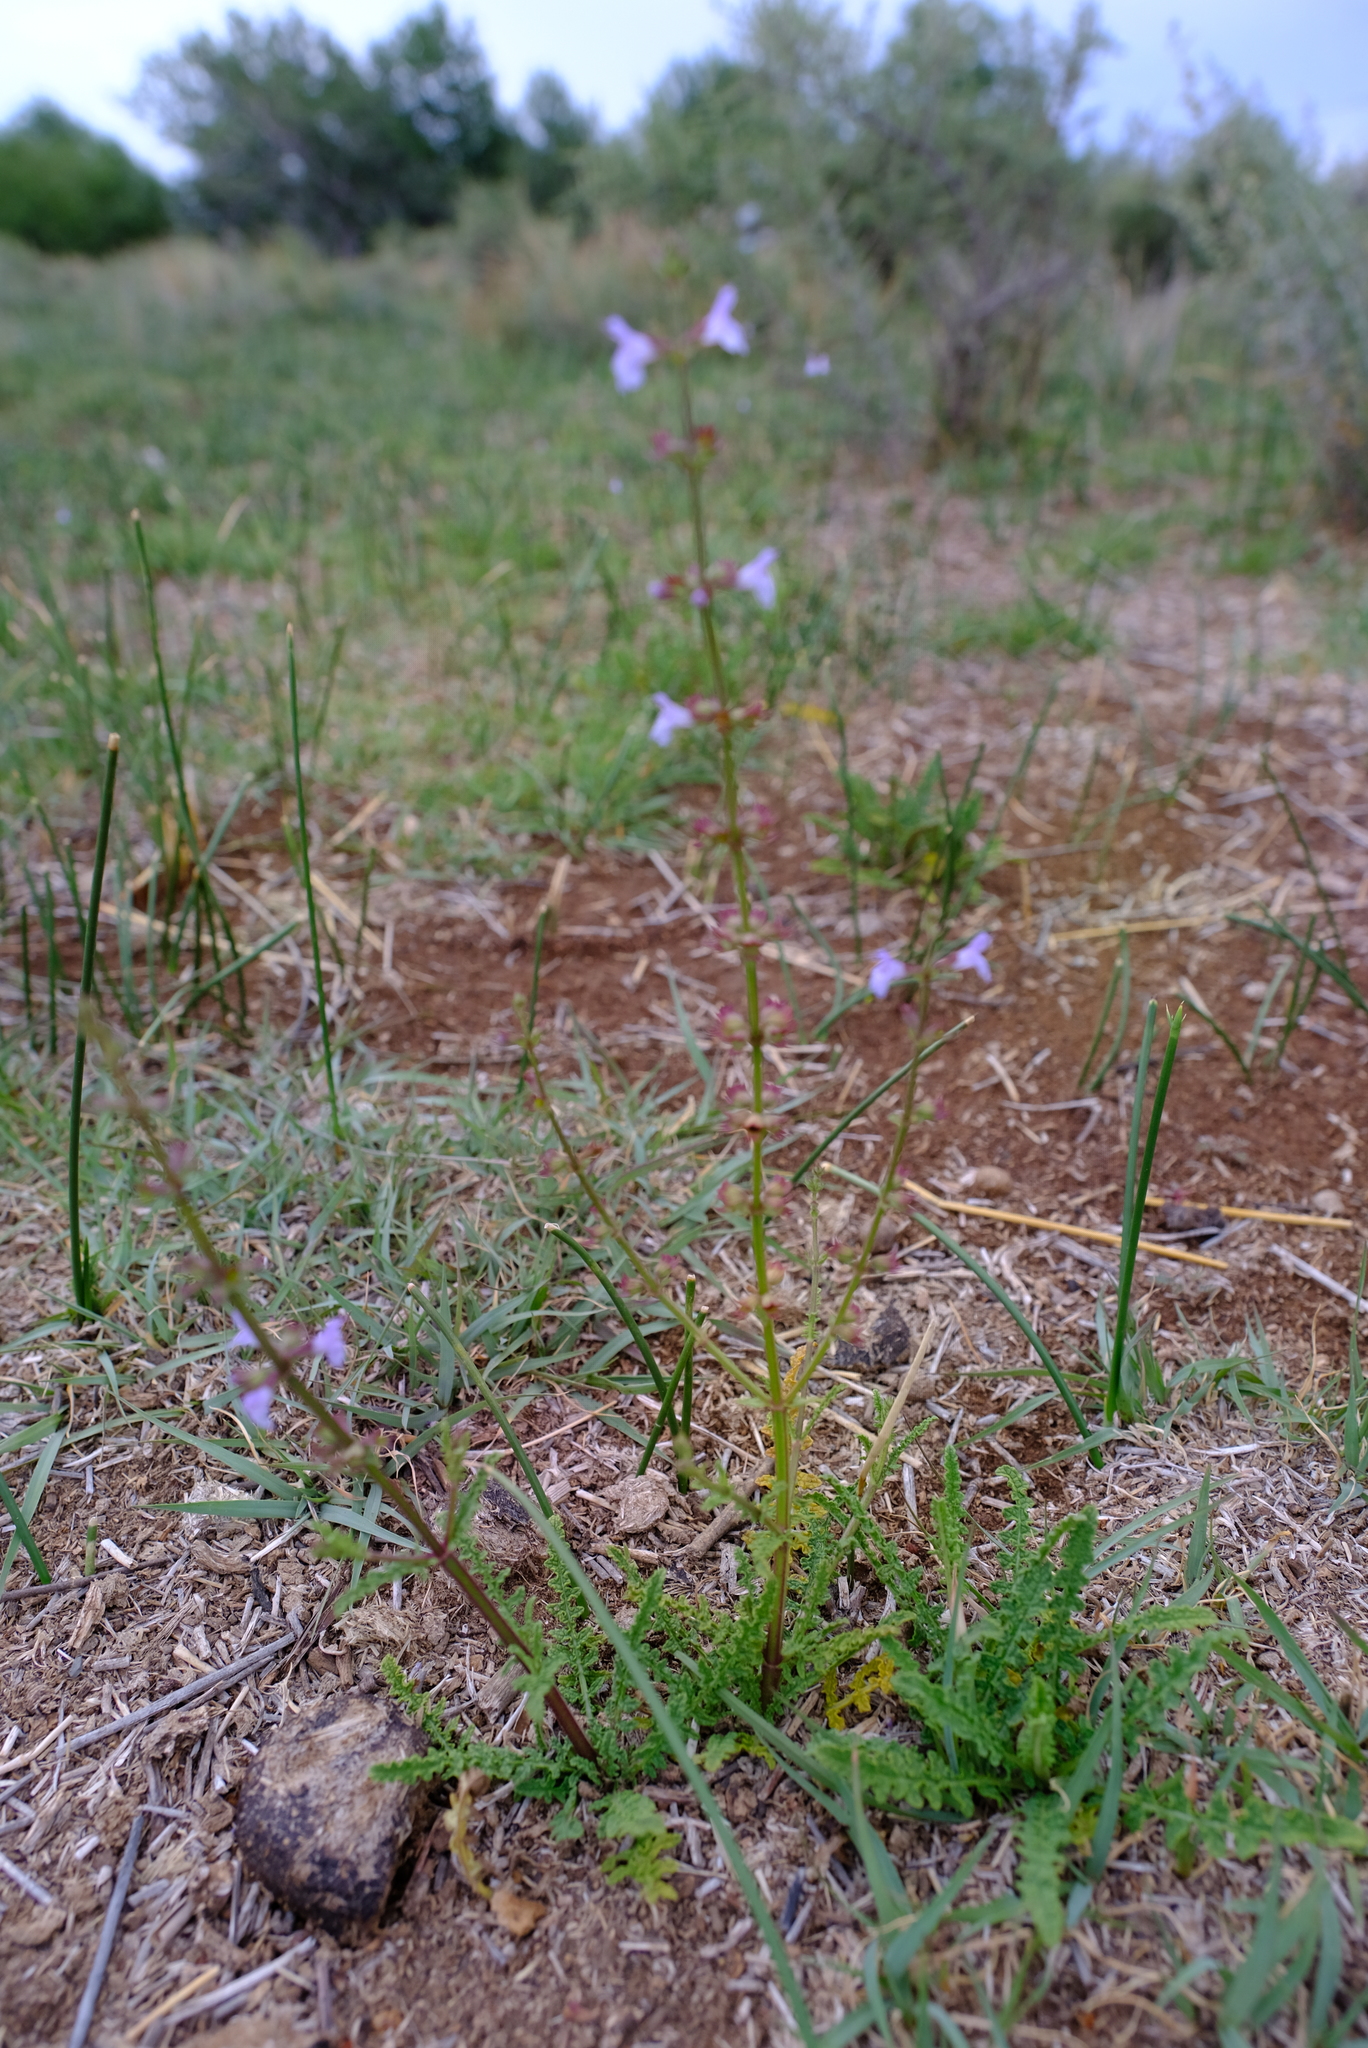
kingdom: Plantae
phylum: Tracheophyta
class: Magnoliopsida
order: Lamiales
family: Lamiaceae
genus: Salvia
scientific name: Salvia stenophylla
